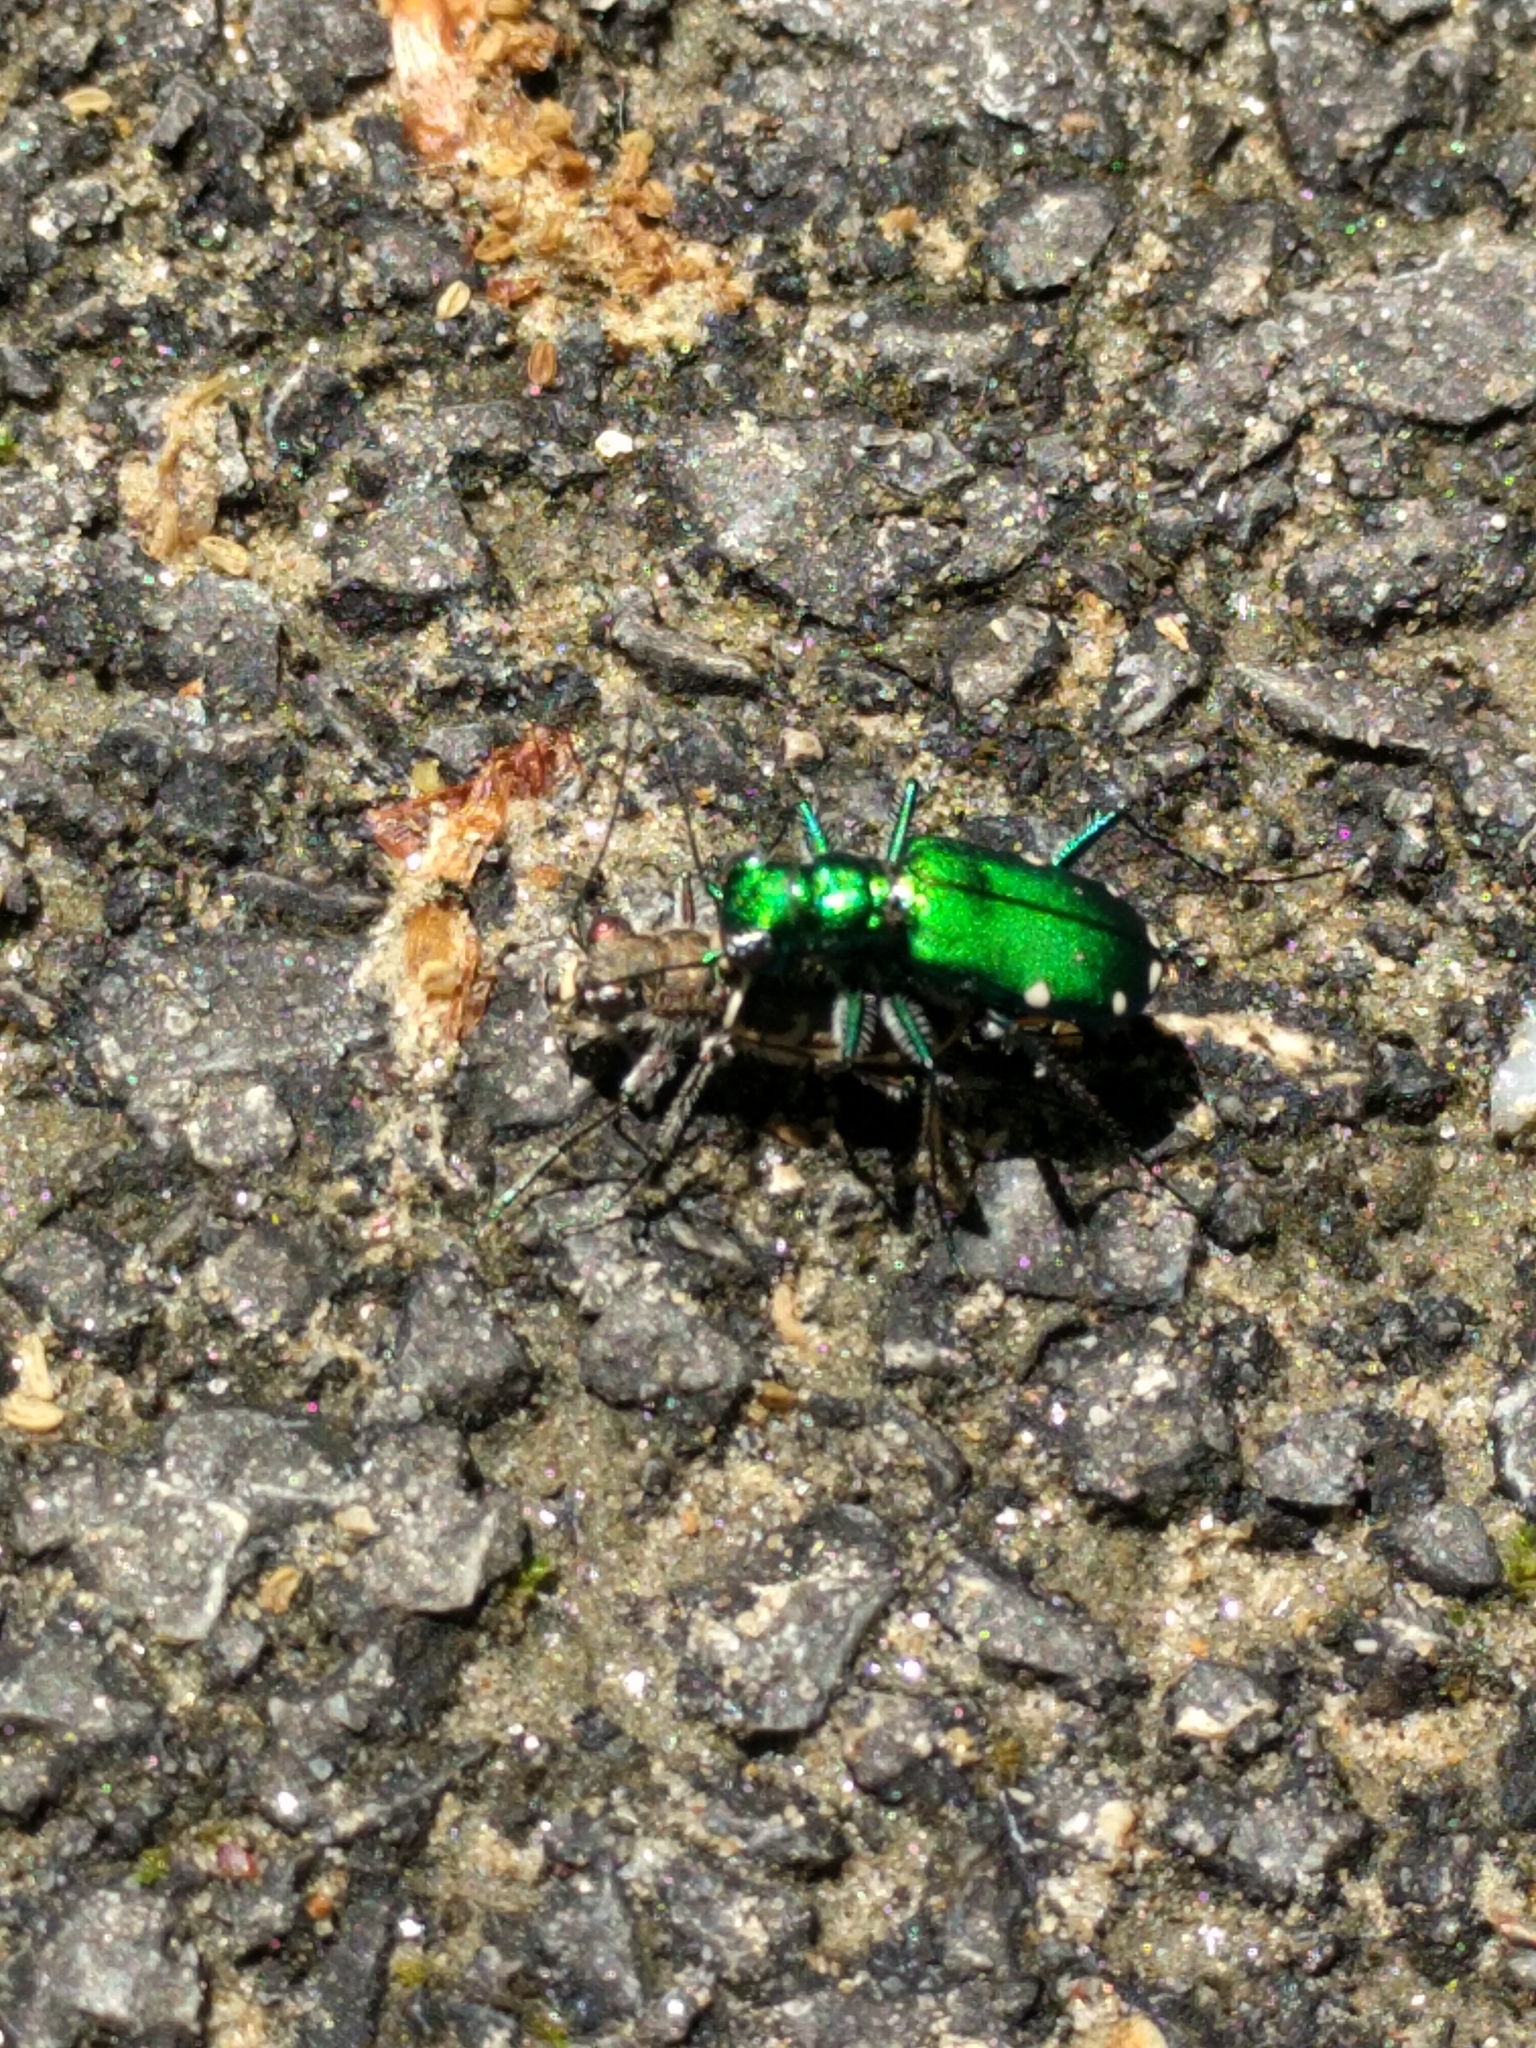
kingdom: Animalia
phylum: Arthropoda
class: Insecta
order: Coleoptera
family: Carabidae
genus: Cicindela
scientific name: Cicindela sexguttata
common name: Six-spotted tiger beetle
